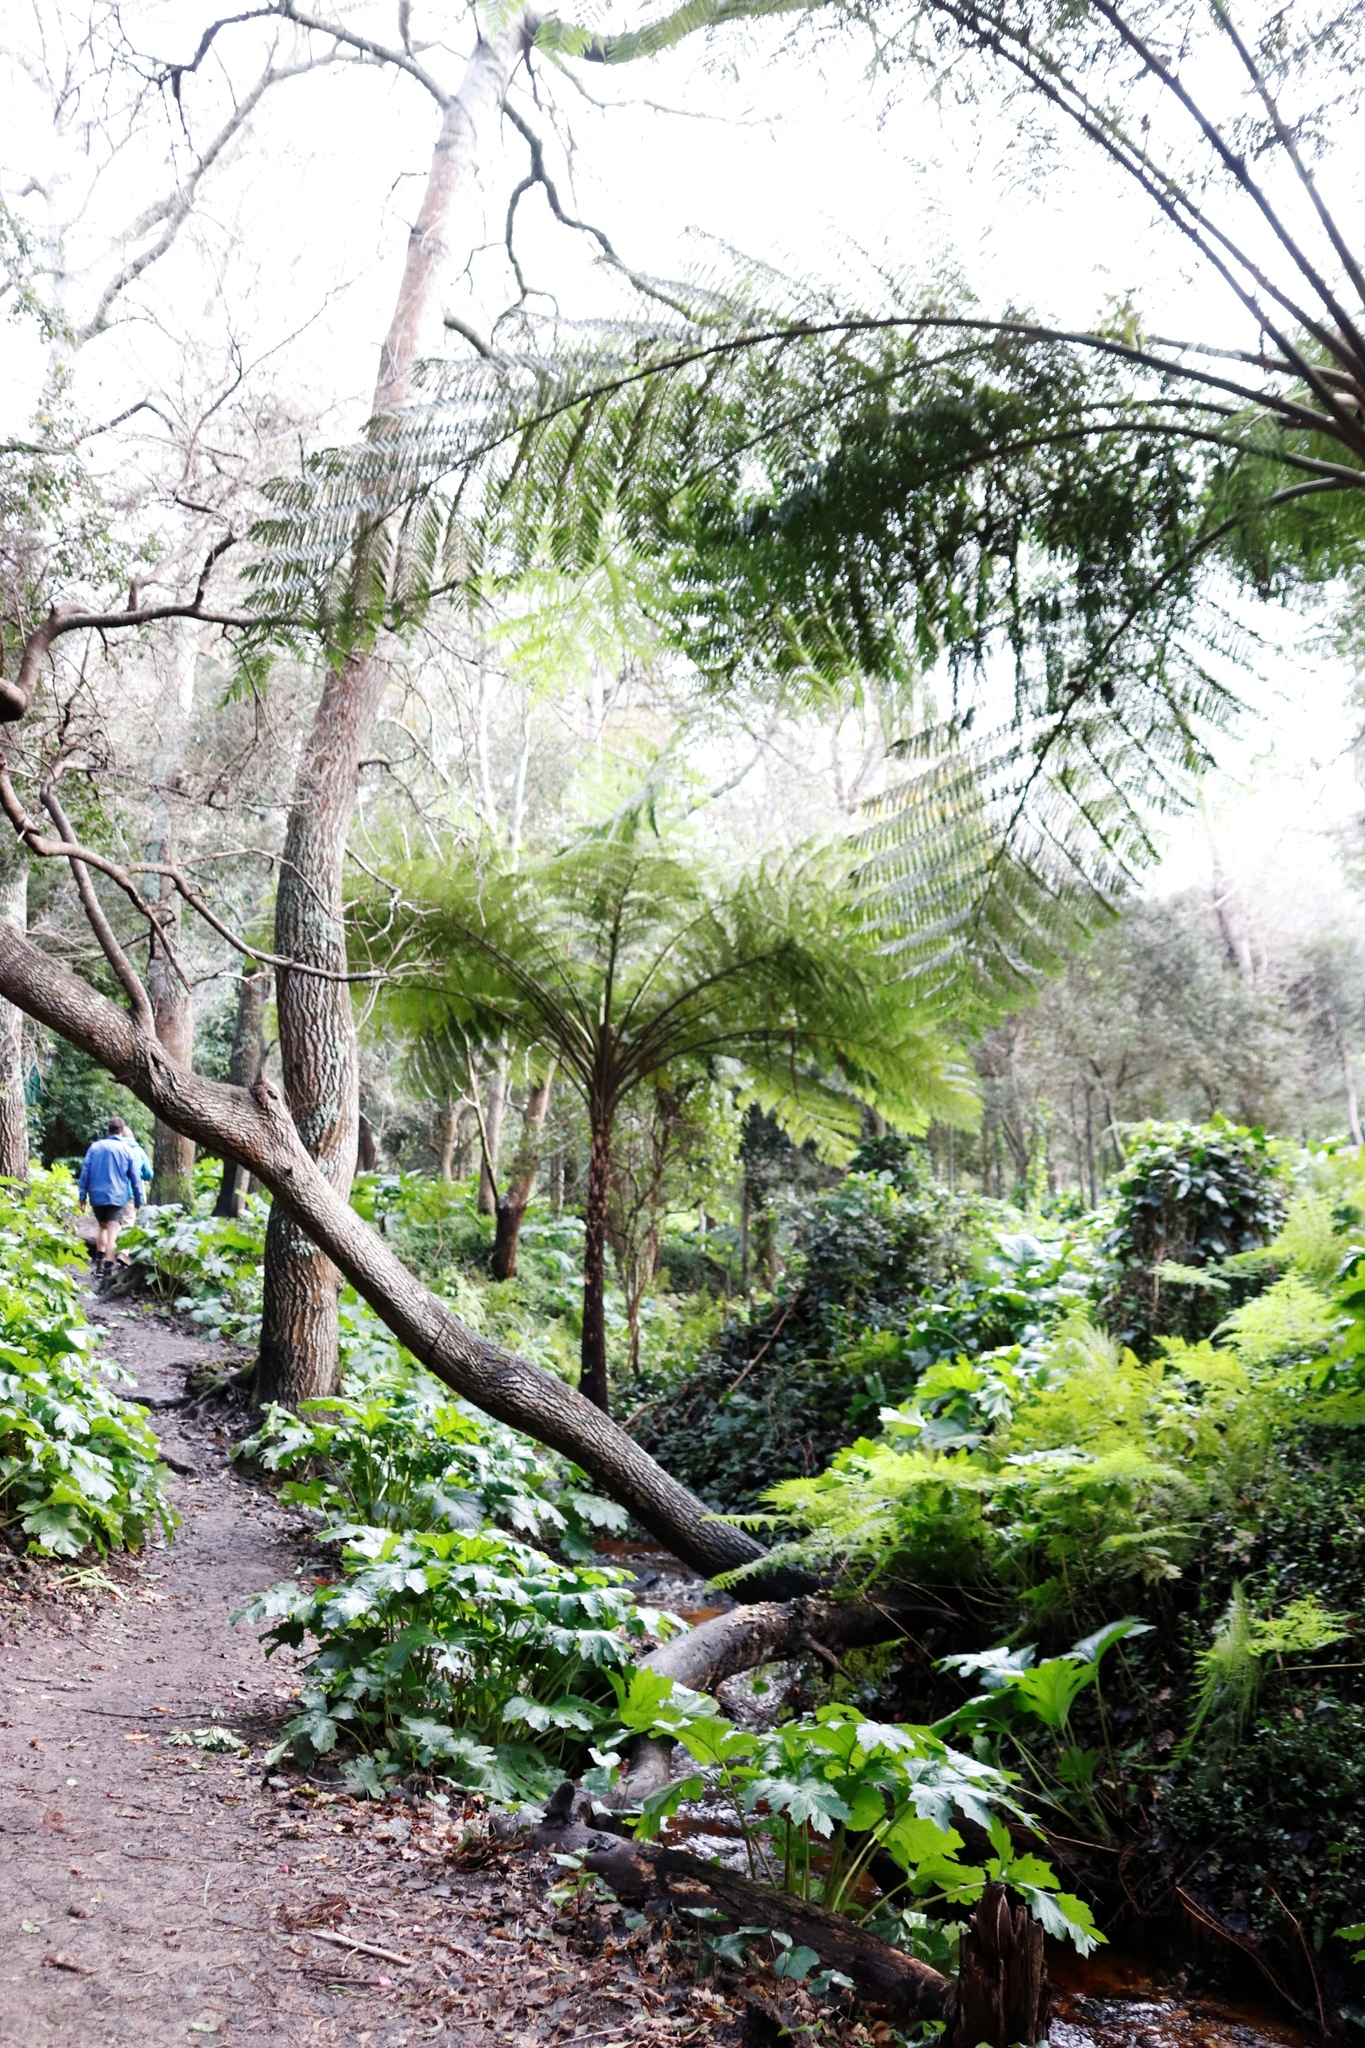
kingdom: Plantae
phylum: Tracheophyta
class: Polypodiopsida
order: Cyatheales
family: Cyatheaceae
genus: Sphaeropteris
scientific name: Sphaeropteris cooperi
